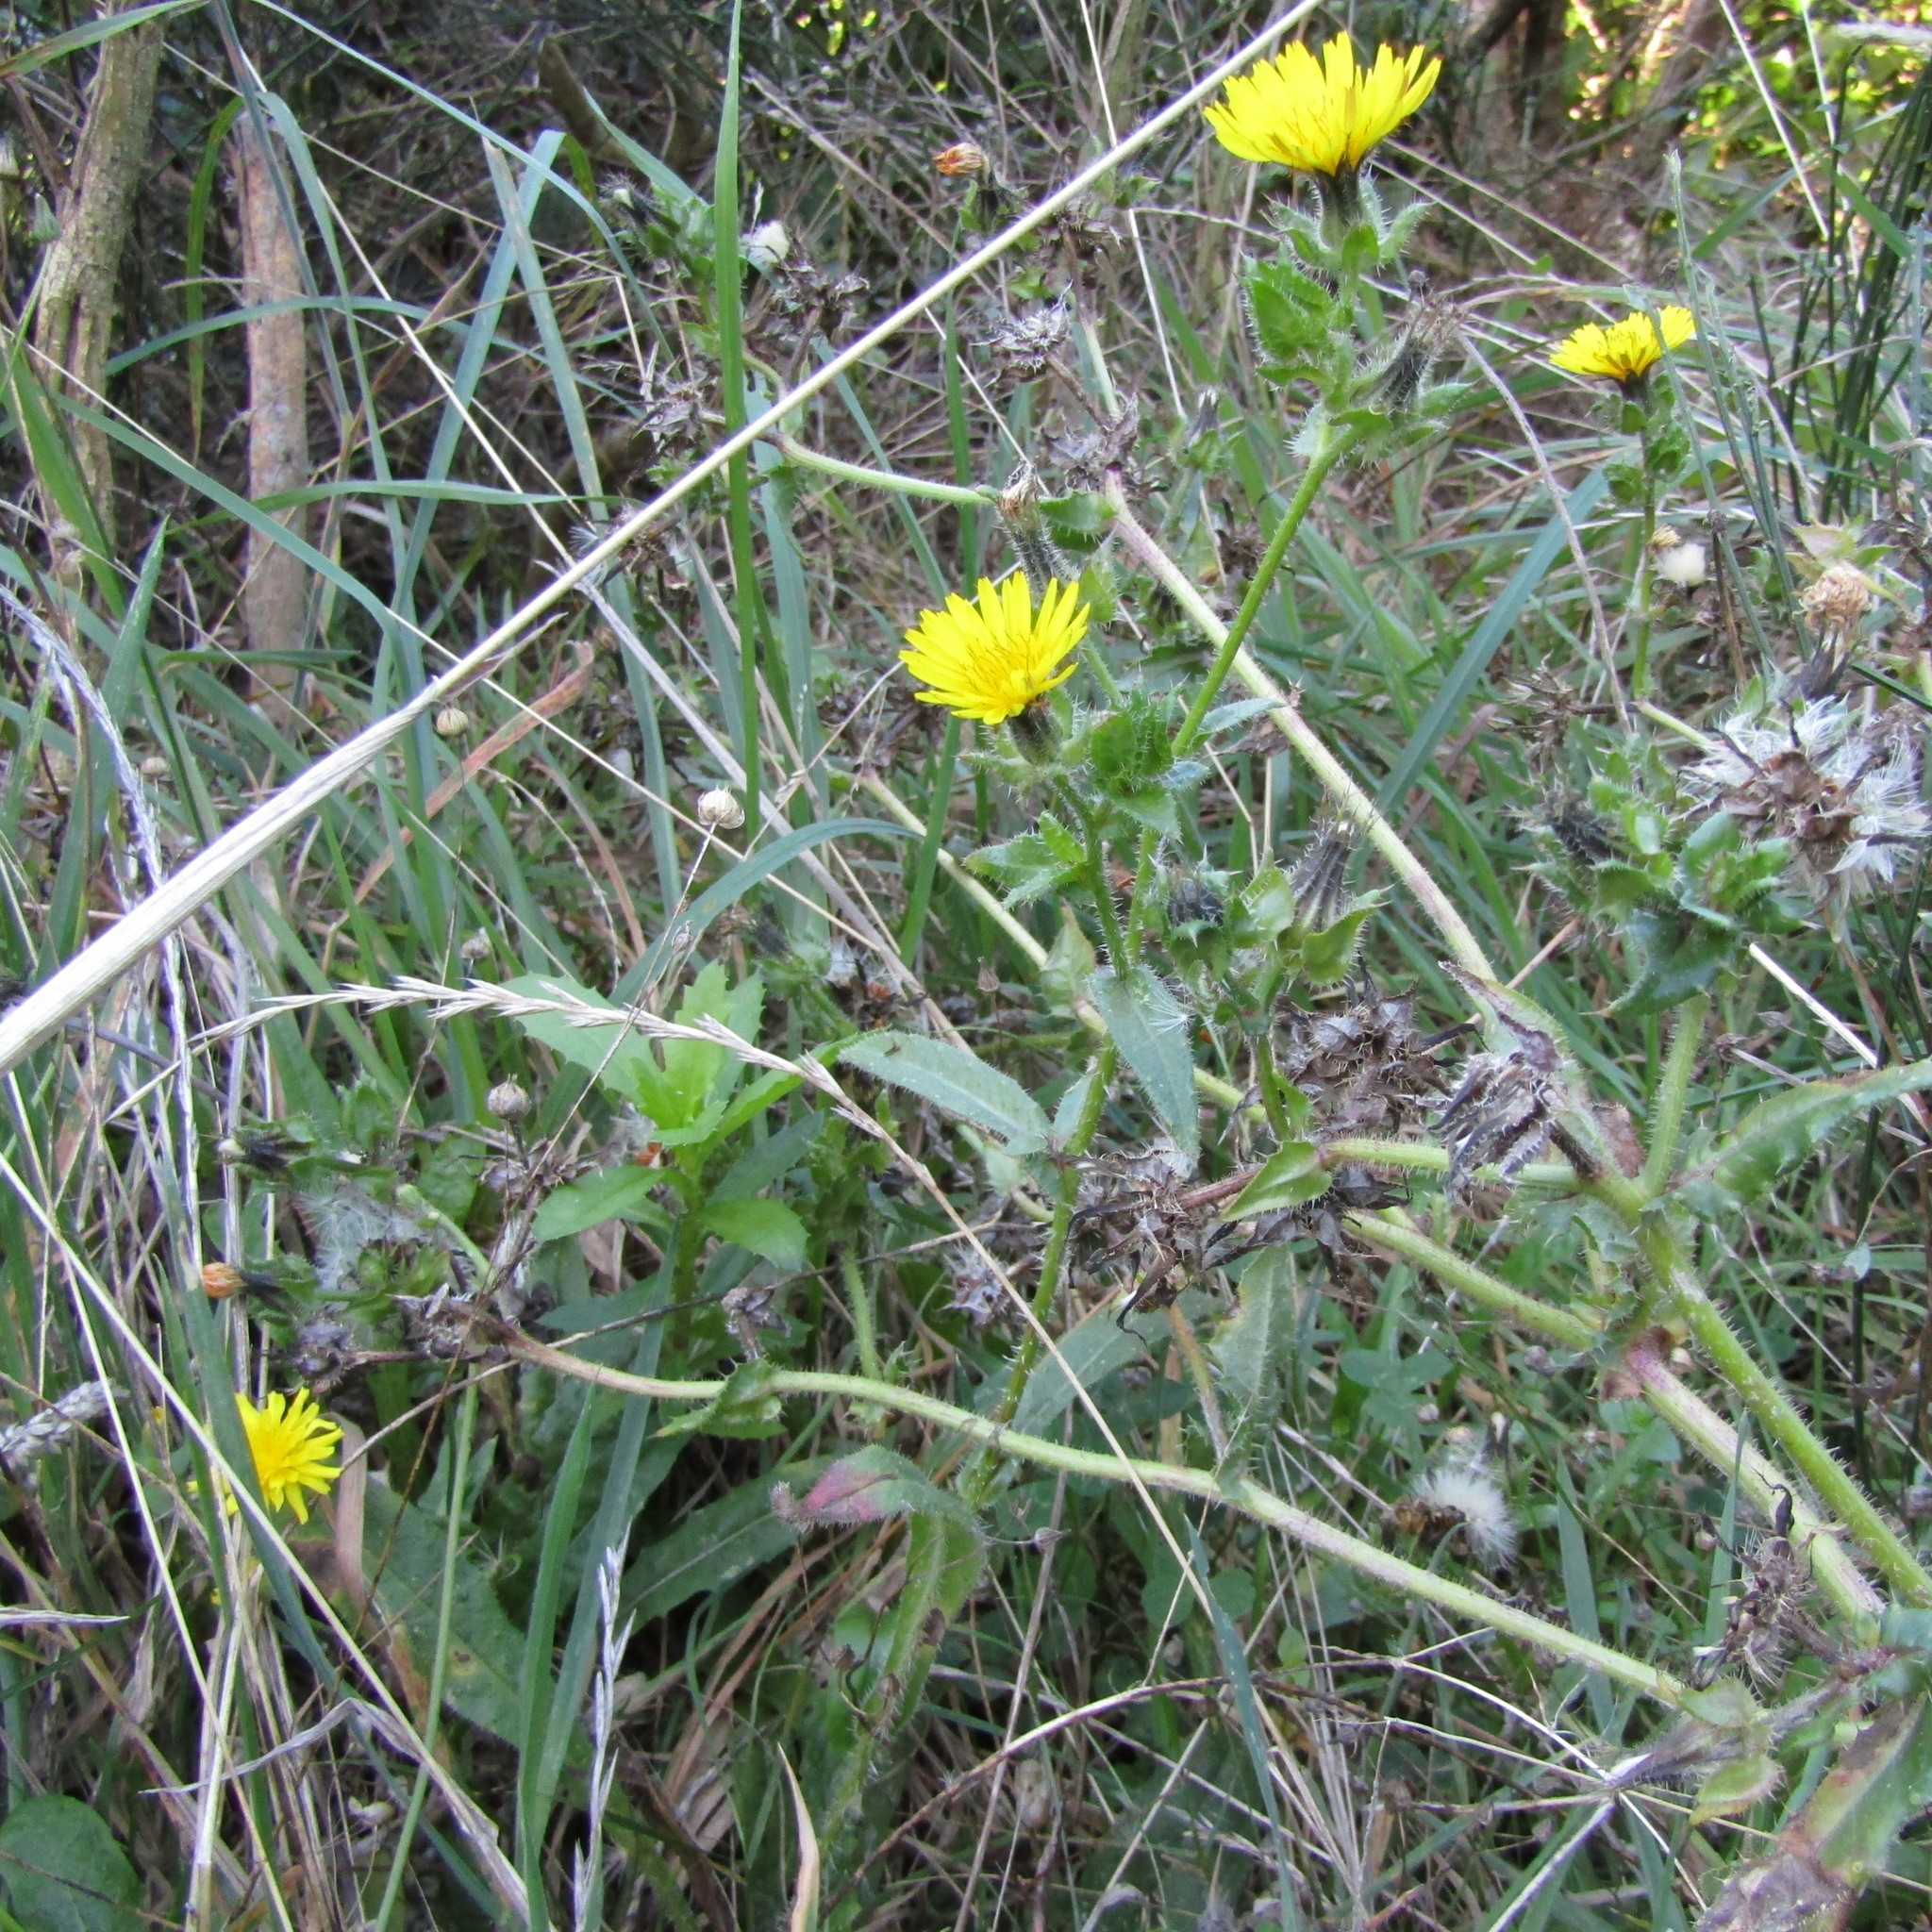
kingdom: Plantae
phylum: Tracheophyta
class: Magnoliopsida
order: Asterales
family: Asteraceae
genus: Helminthotheca
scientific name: Helminthotheca echioides
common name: Ox-tongue
